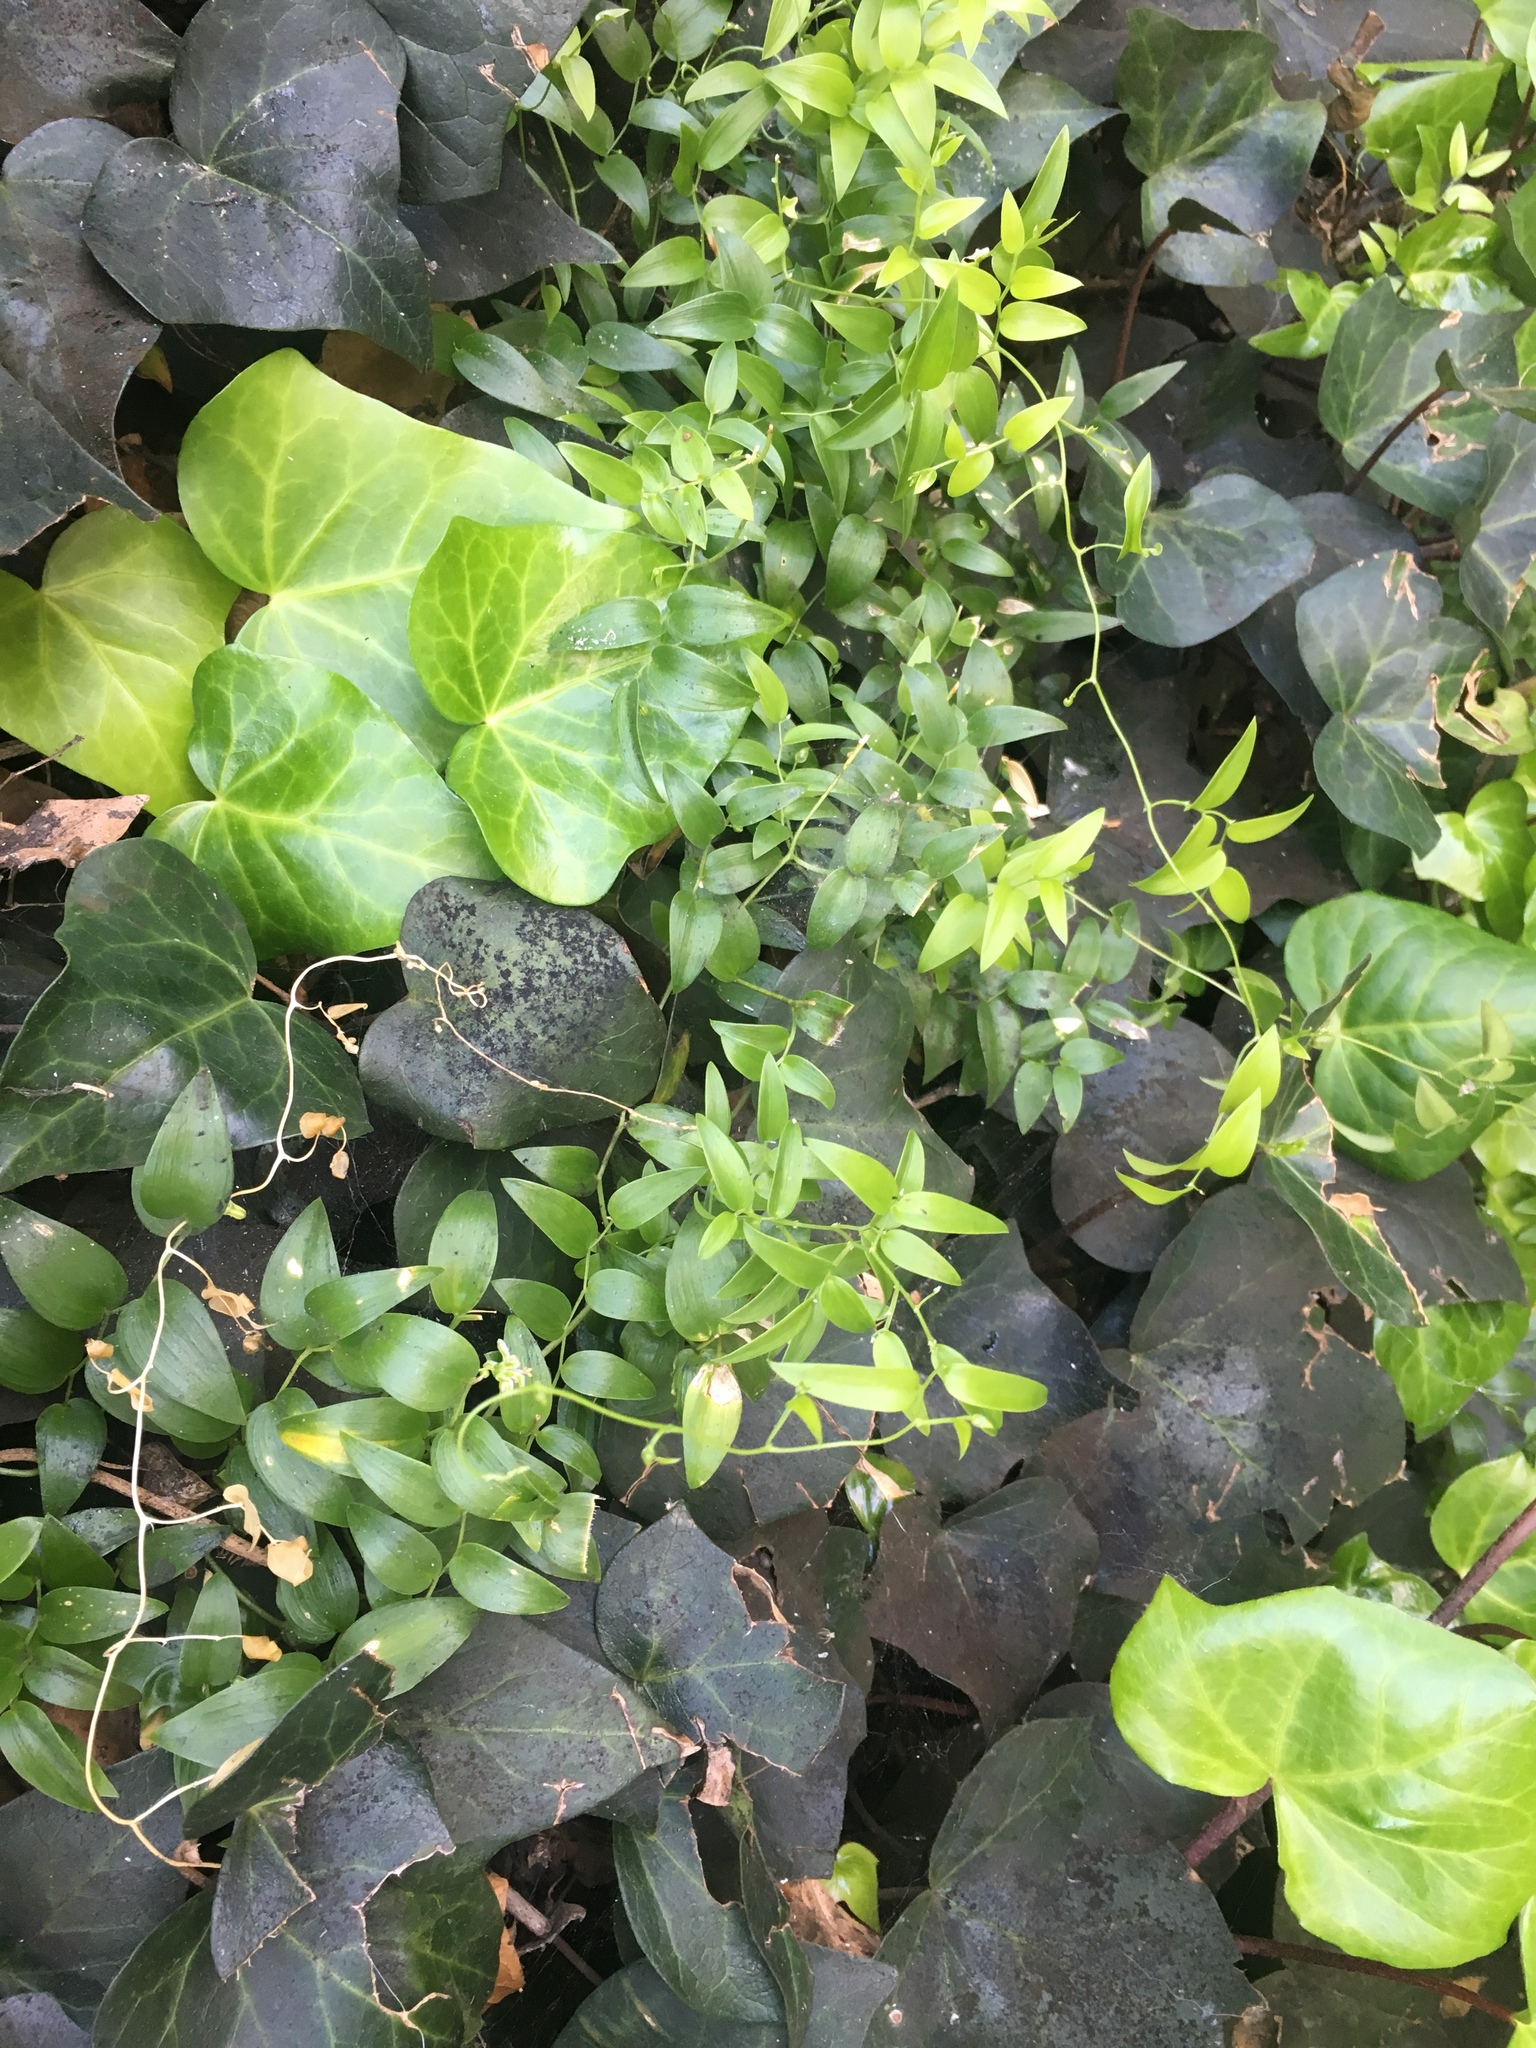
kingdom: Plantae
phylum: Tracheophyta
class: Liliopsida
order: Asparagales
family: Asparagaceae
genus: Asparagus
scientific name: Asparagus asparagoides
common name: African asparagus fern
